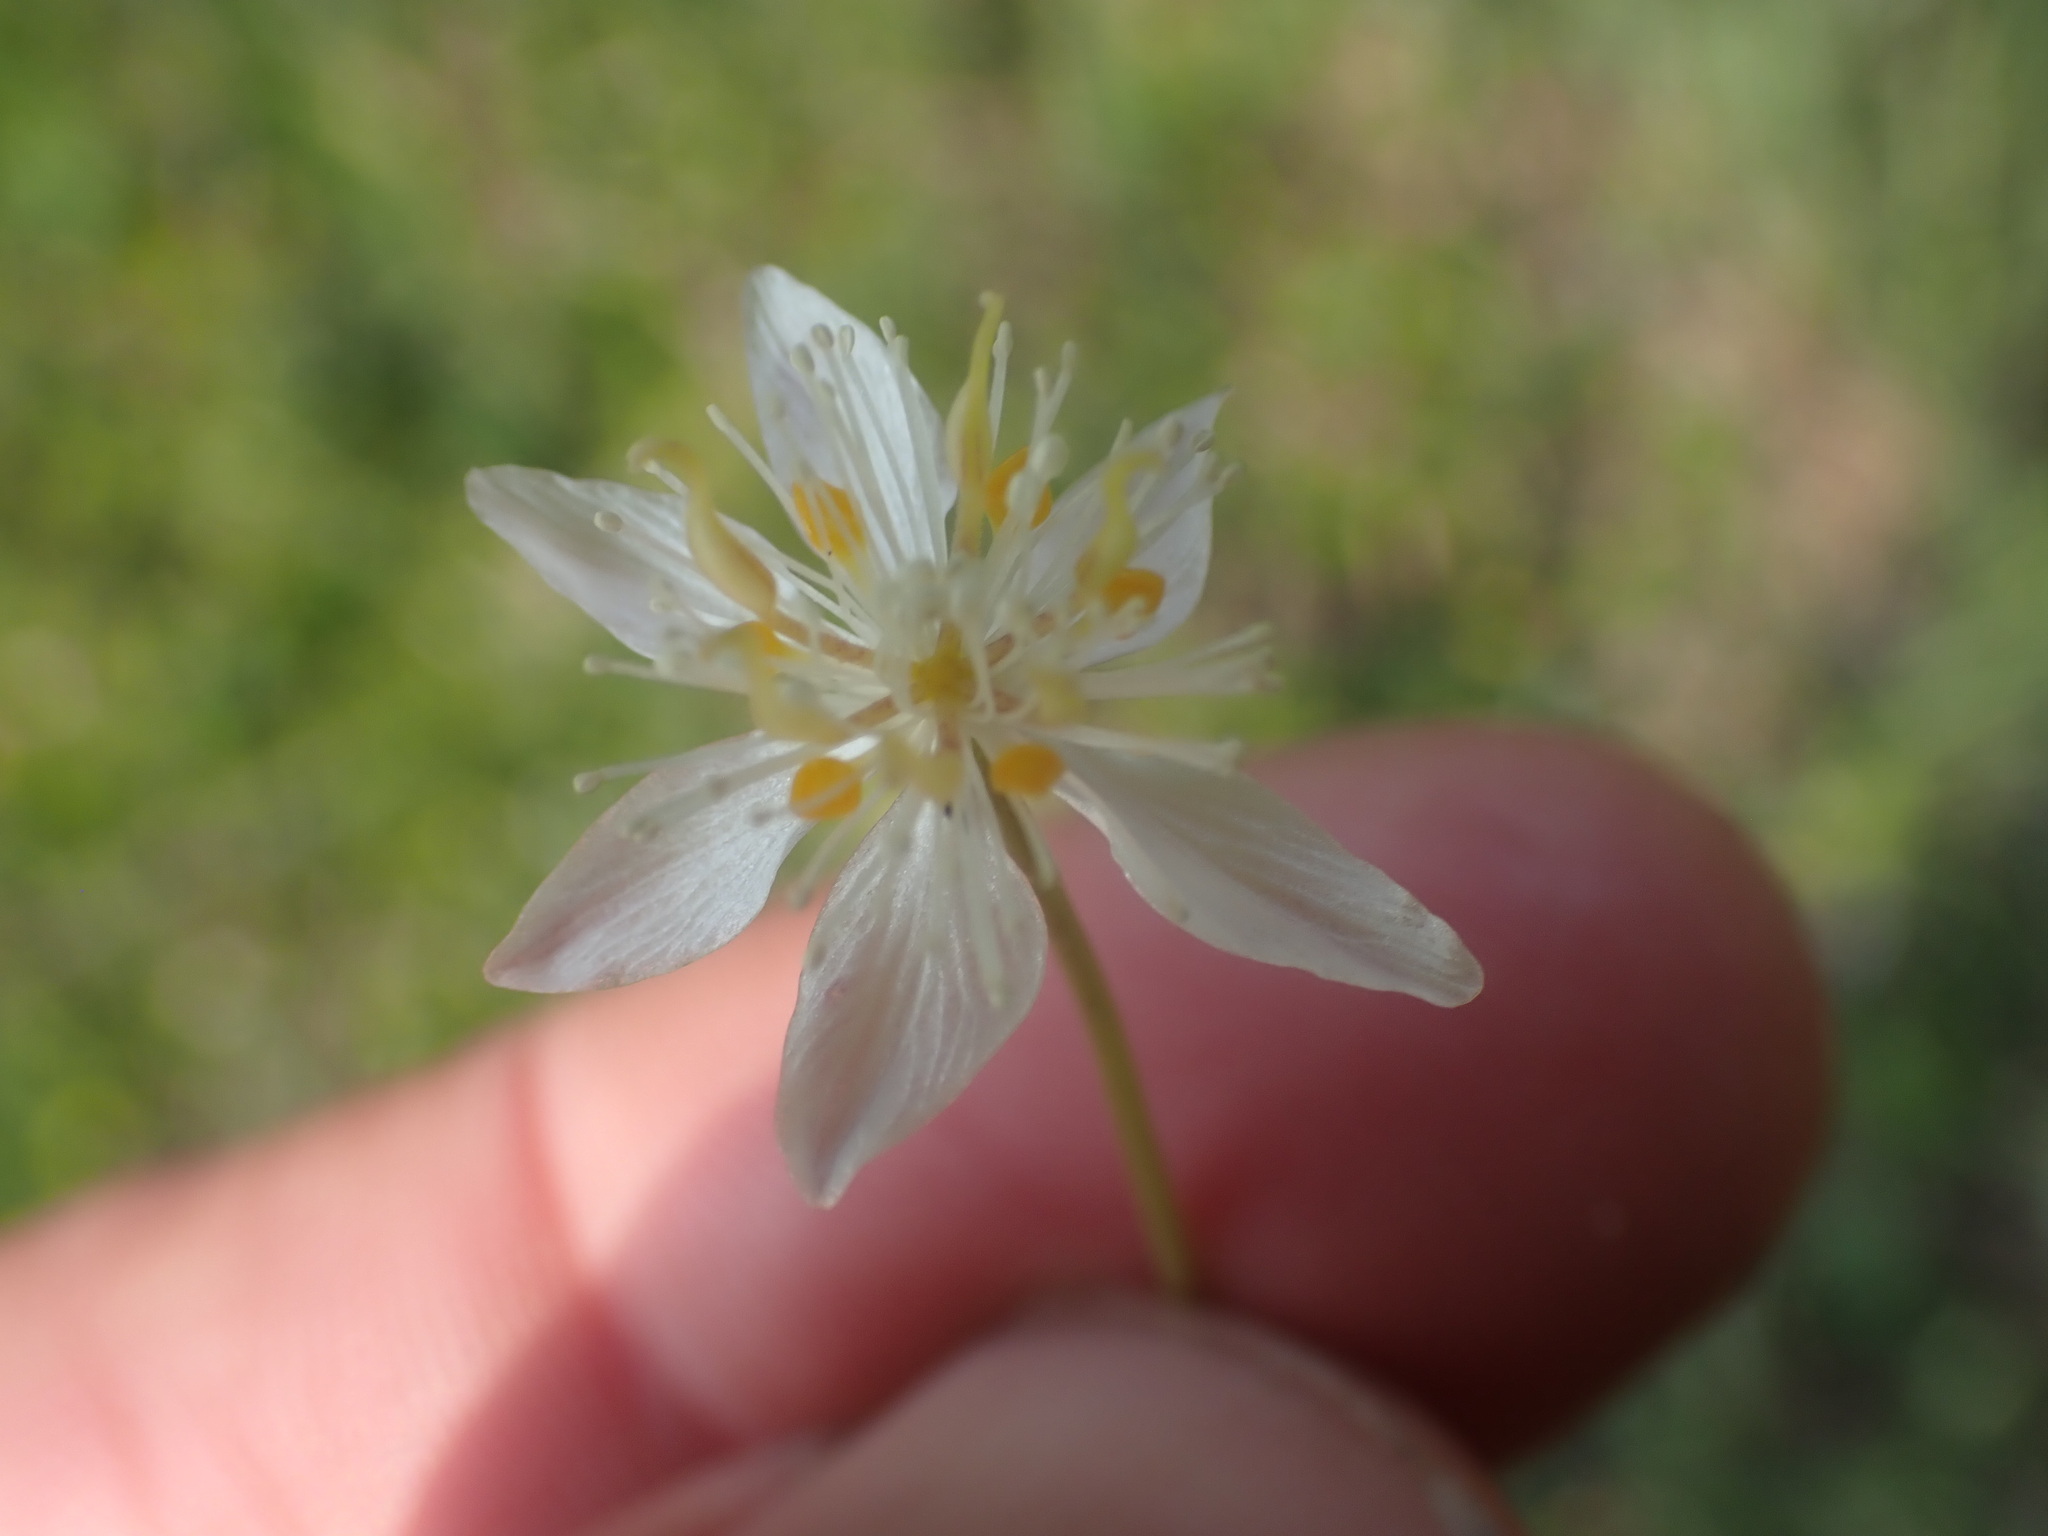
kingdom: Plantae
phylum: Tracheophyta
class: Magnoliopsida
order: Ranunculales
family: Ranunculaceae
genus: Coptis
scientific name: Coptis trifolia
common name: Canker-root
